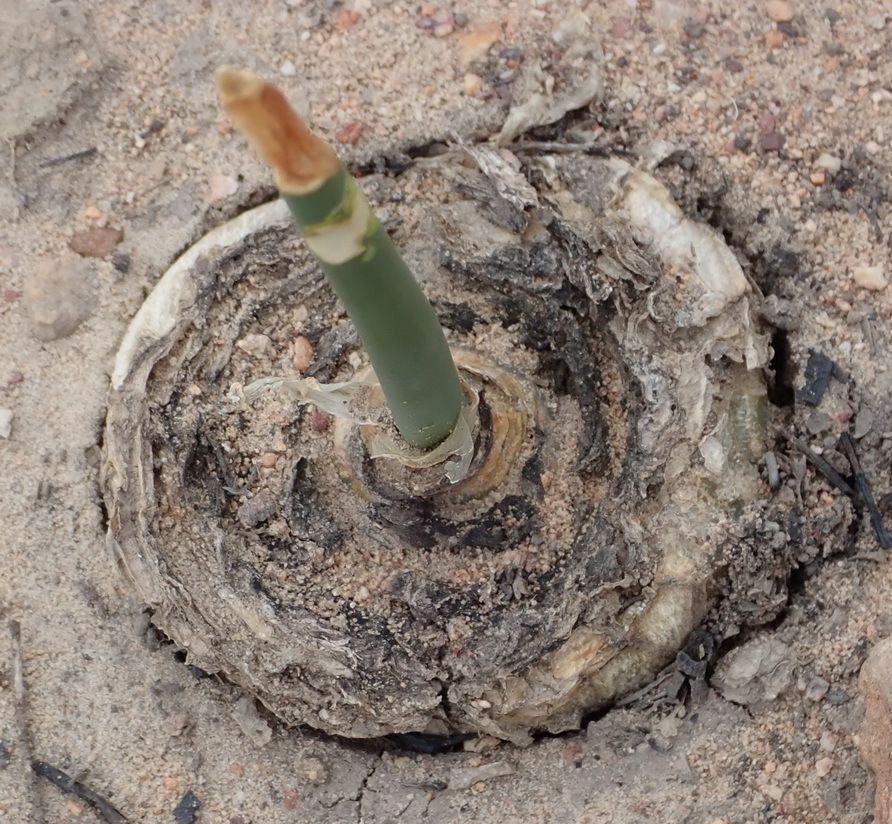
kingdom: Plantae
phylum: Tracheophyta
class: Liliopsida
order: Asparagales
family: Asparagaceae
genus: Drimia
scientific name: Drimia anomala
